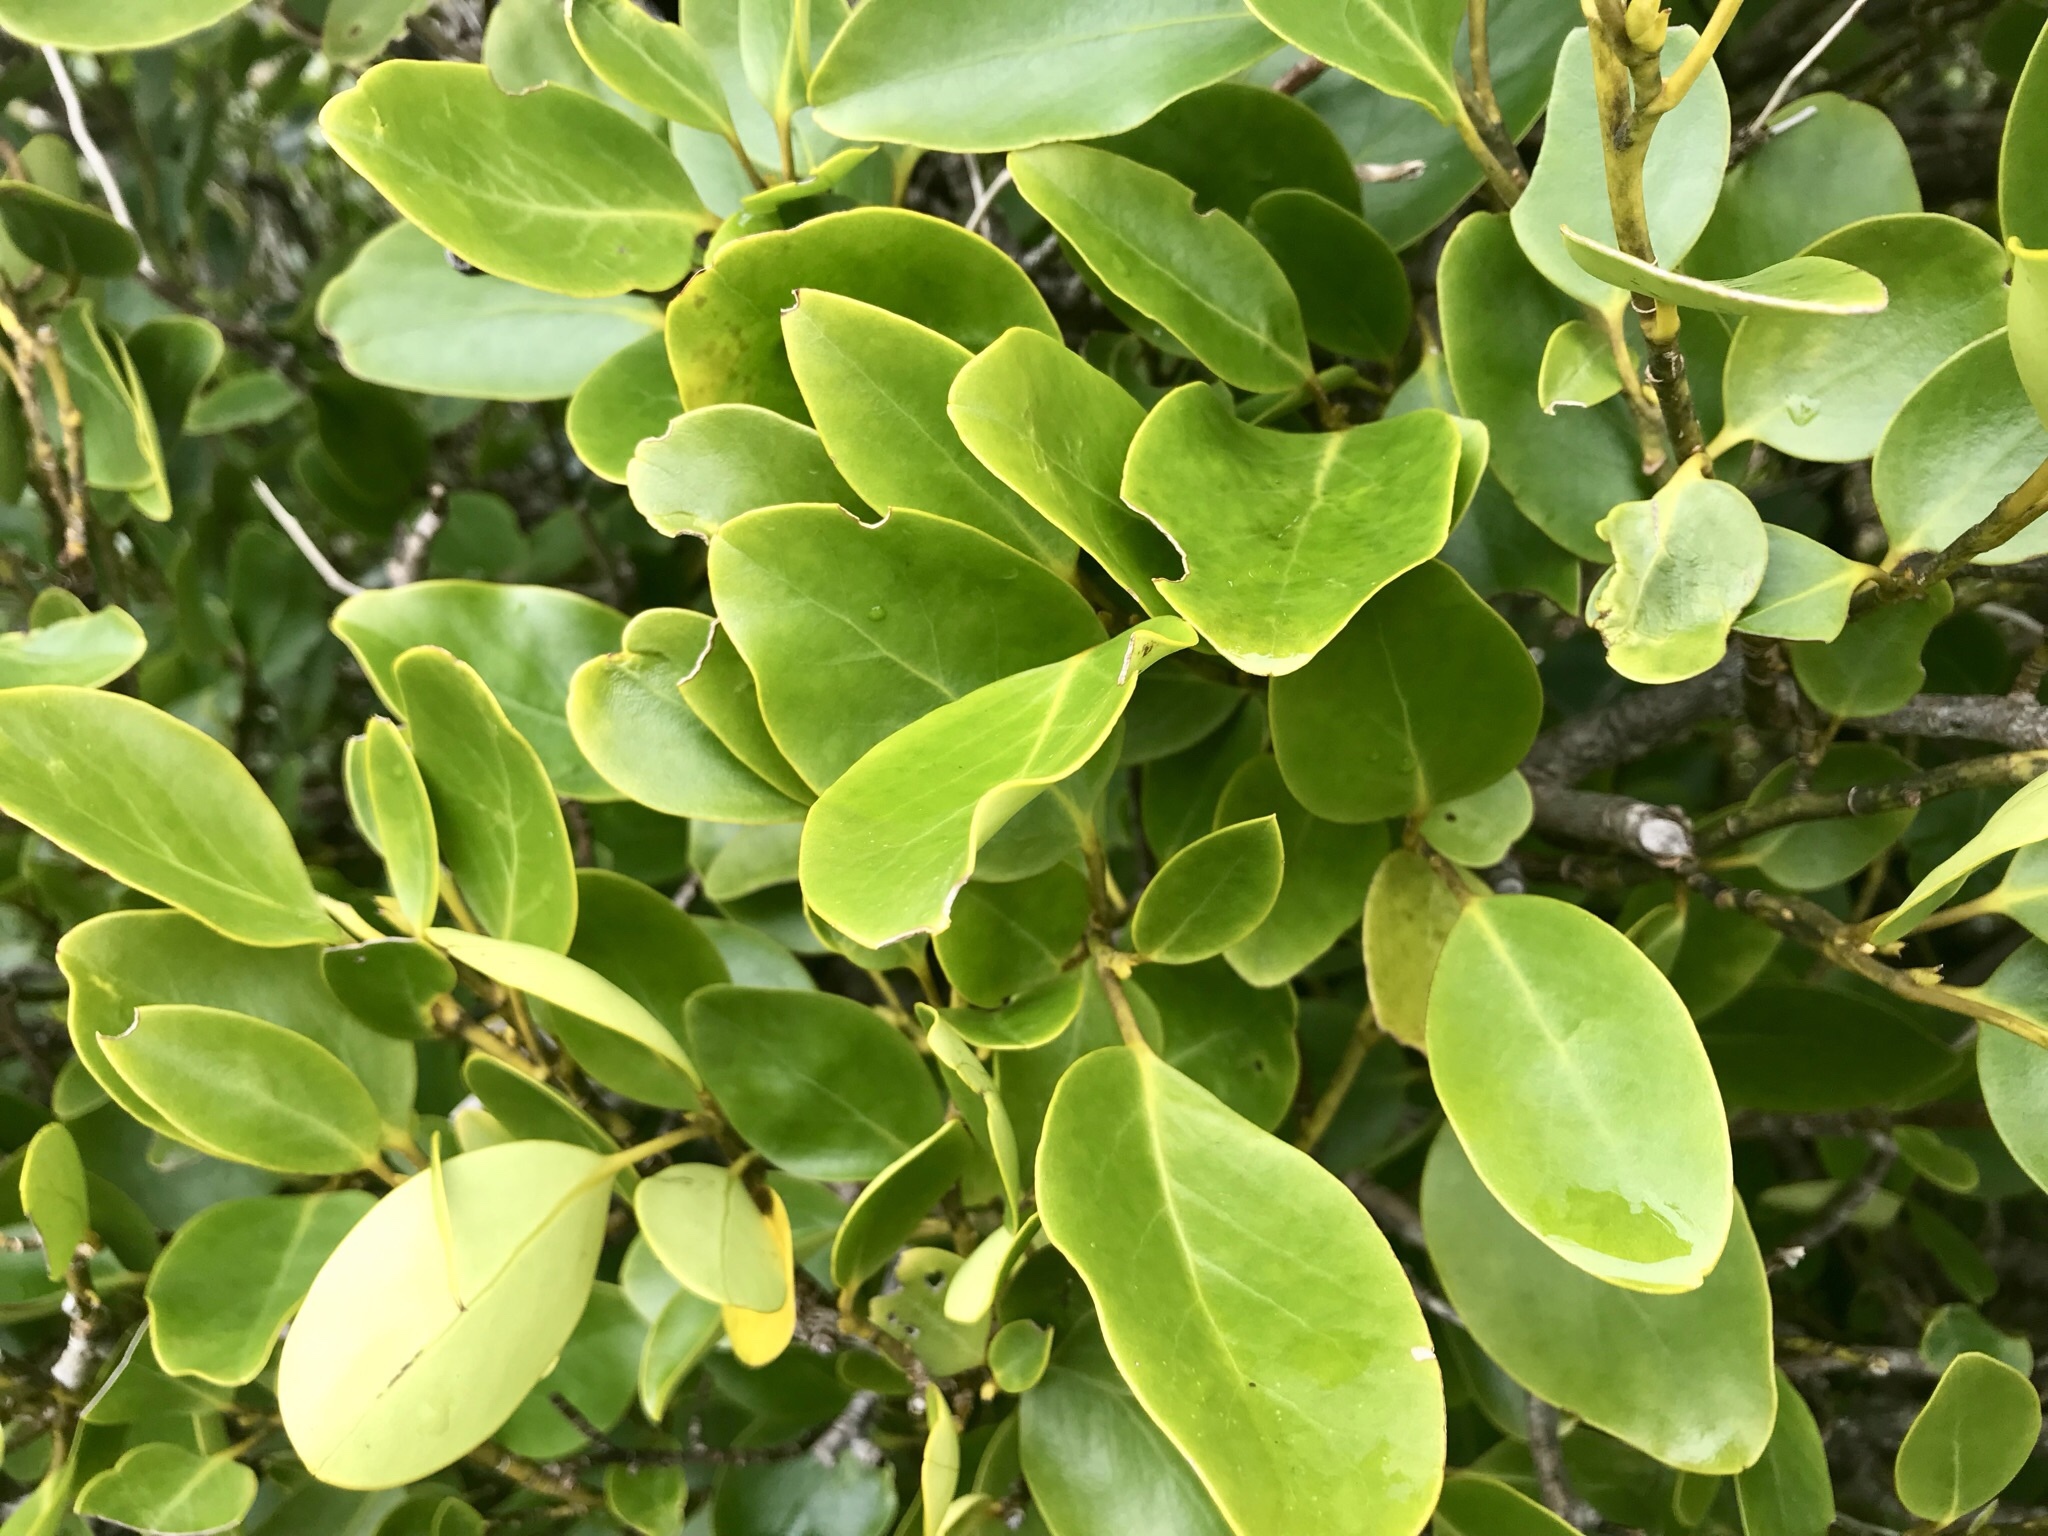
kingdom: Plantae
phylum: Tracheophyta
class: Magnoliopsida
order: Apiales
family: Griseliniaceae
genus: Griselinia
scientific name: Griselinia littoralis
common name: New zealand broadleaf
